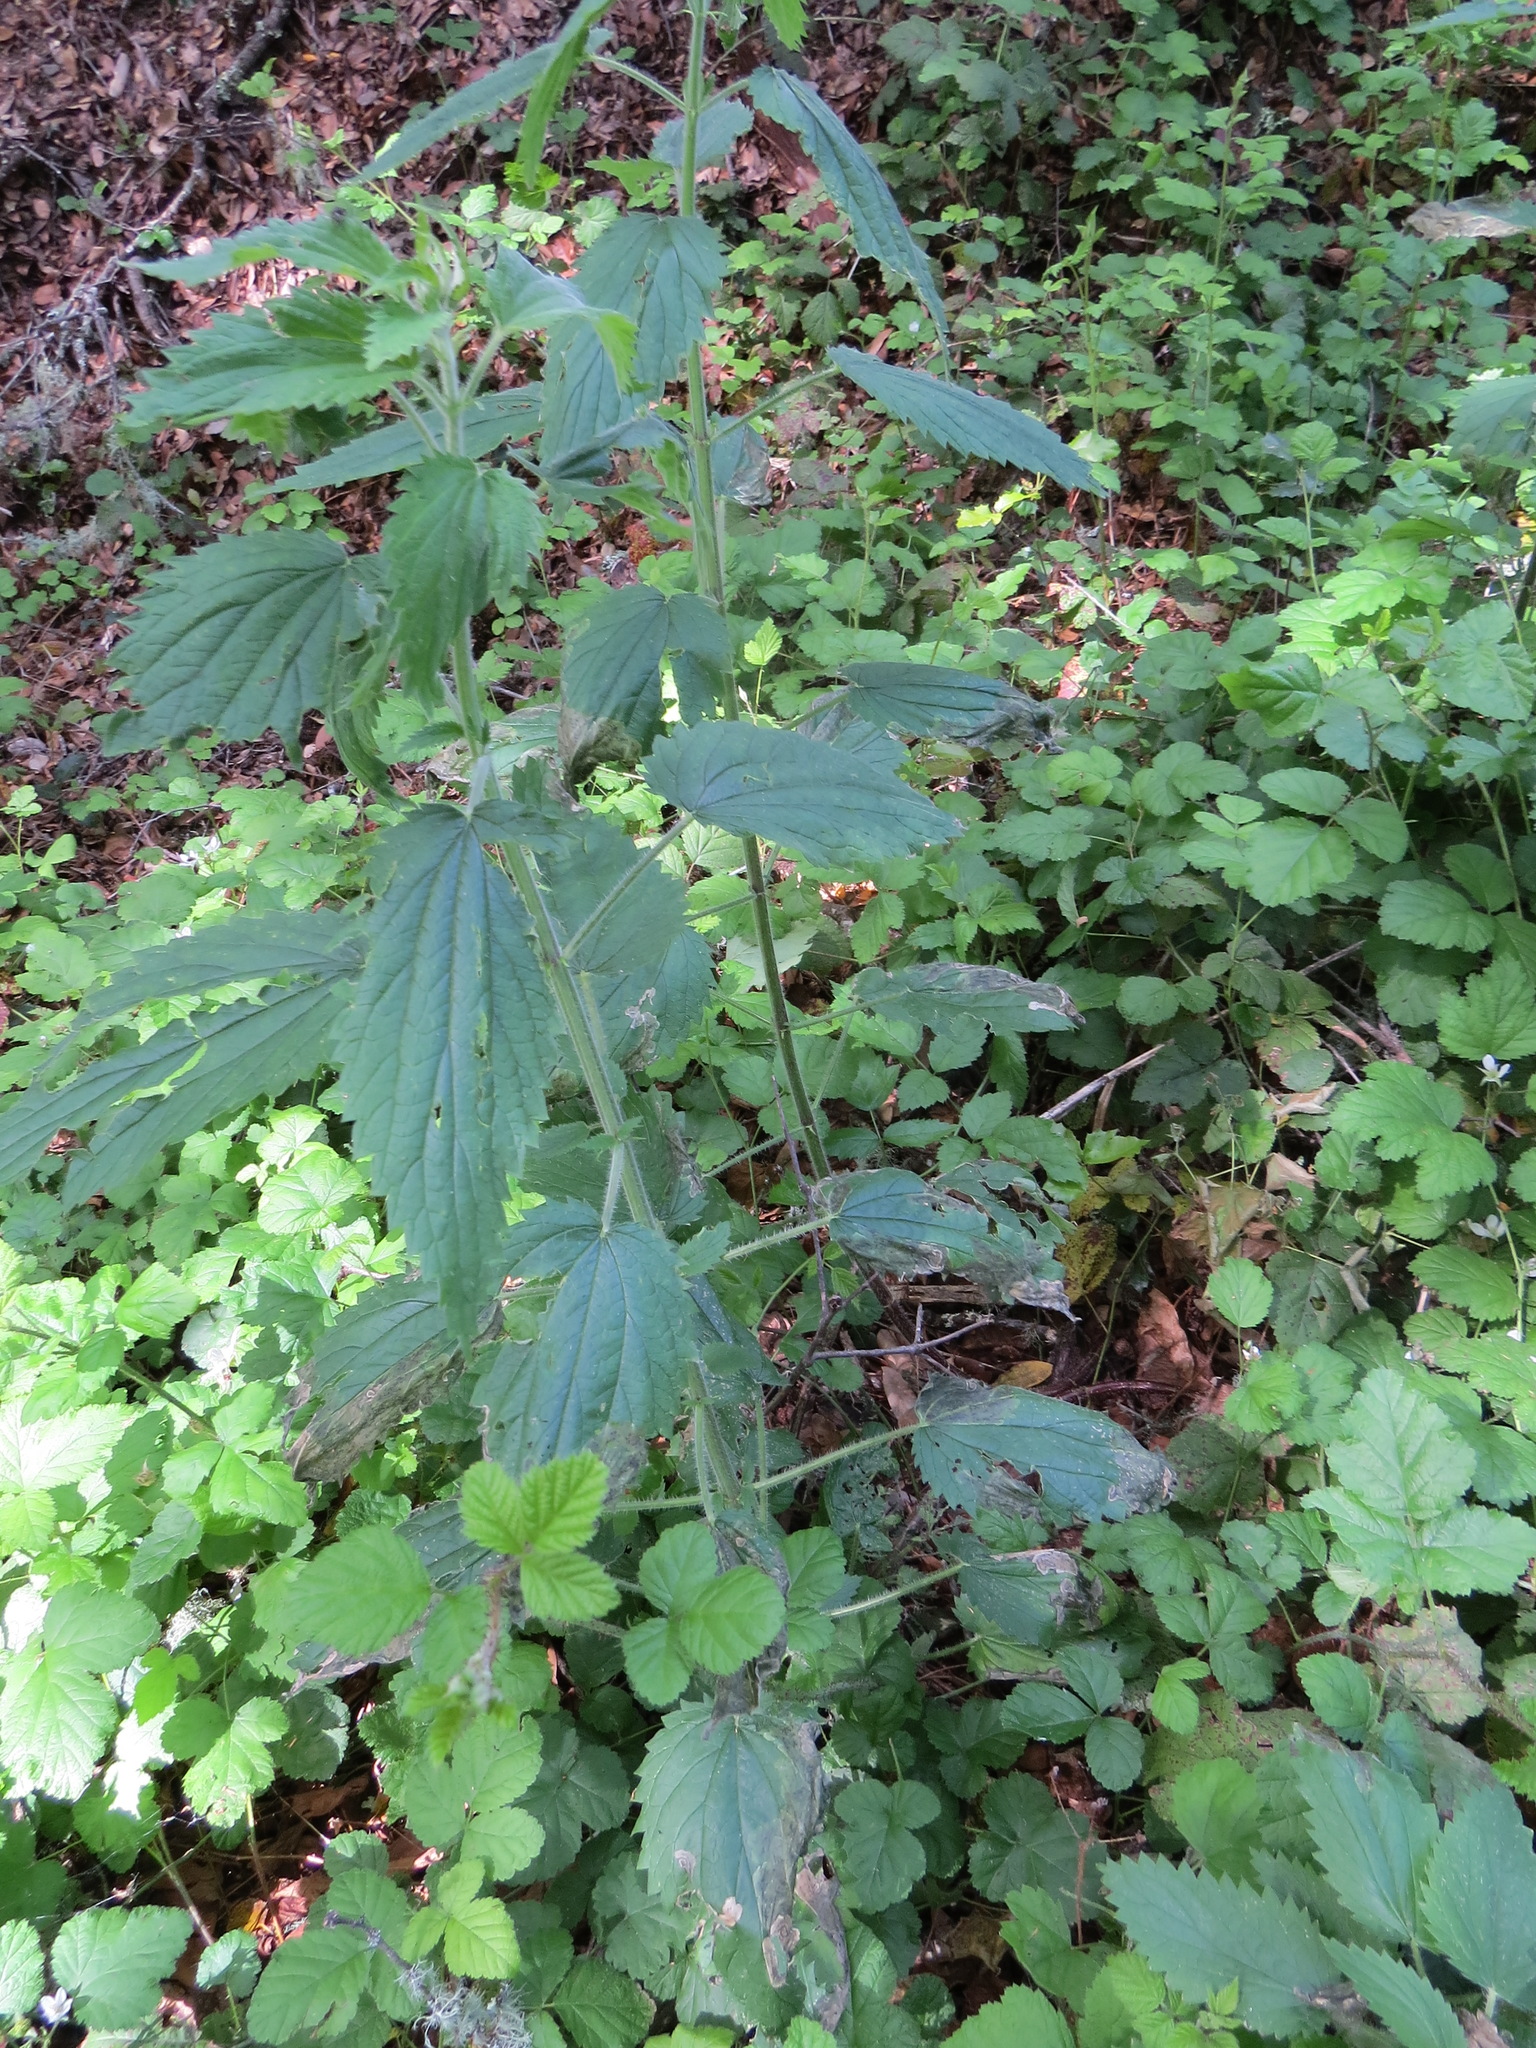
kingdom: Animalia
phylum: Arthropoda
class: Insecta
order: Diptera
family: Agromyzidae
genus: Agromyza
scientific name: Agromyza pseudoreptans
